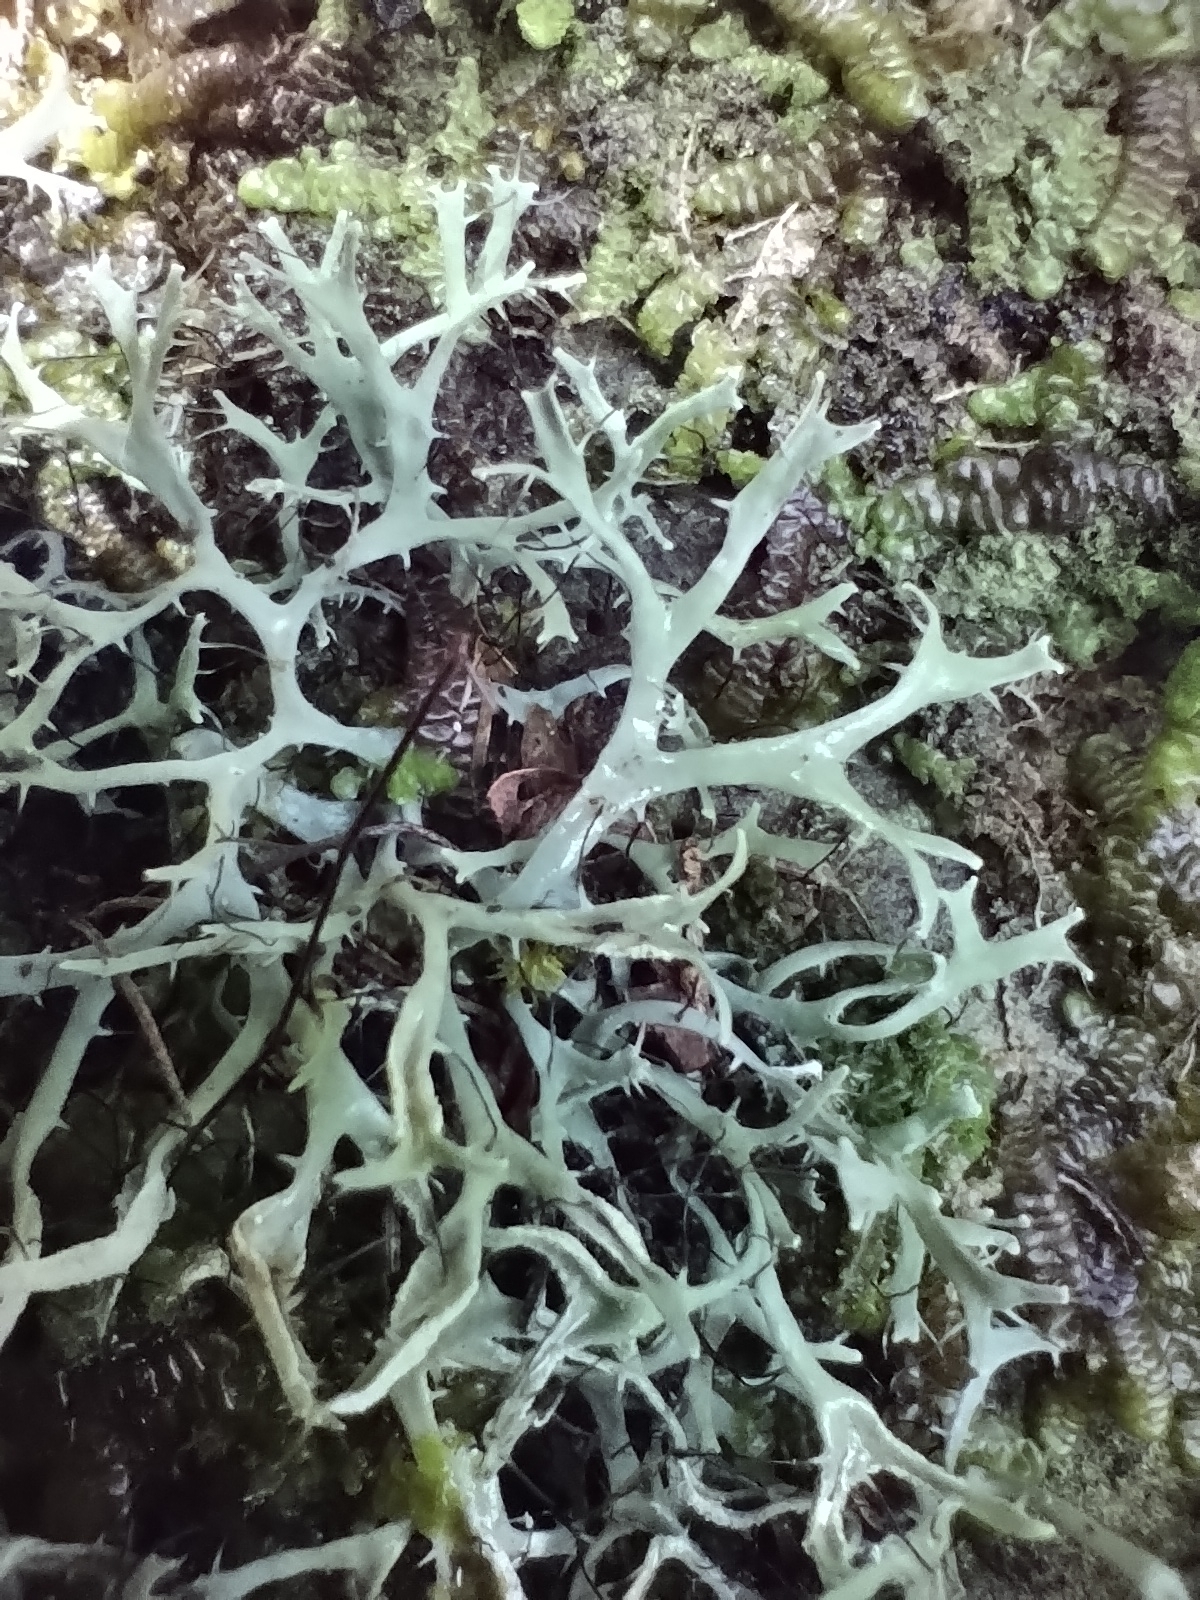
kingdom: Fungi
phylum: Ascomycota
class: Lecanoromycetes
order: Caliciales
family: Physciaceae
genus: Leucodermia
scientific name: Leucodermia leucomelos
